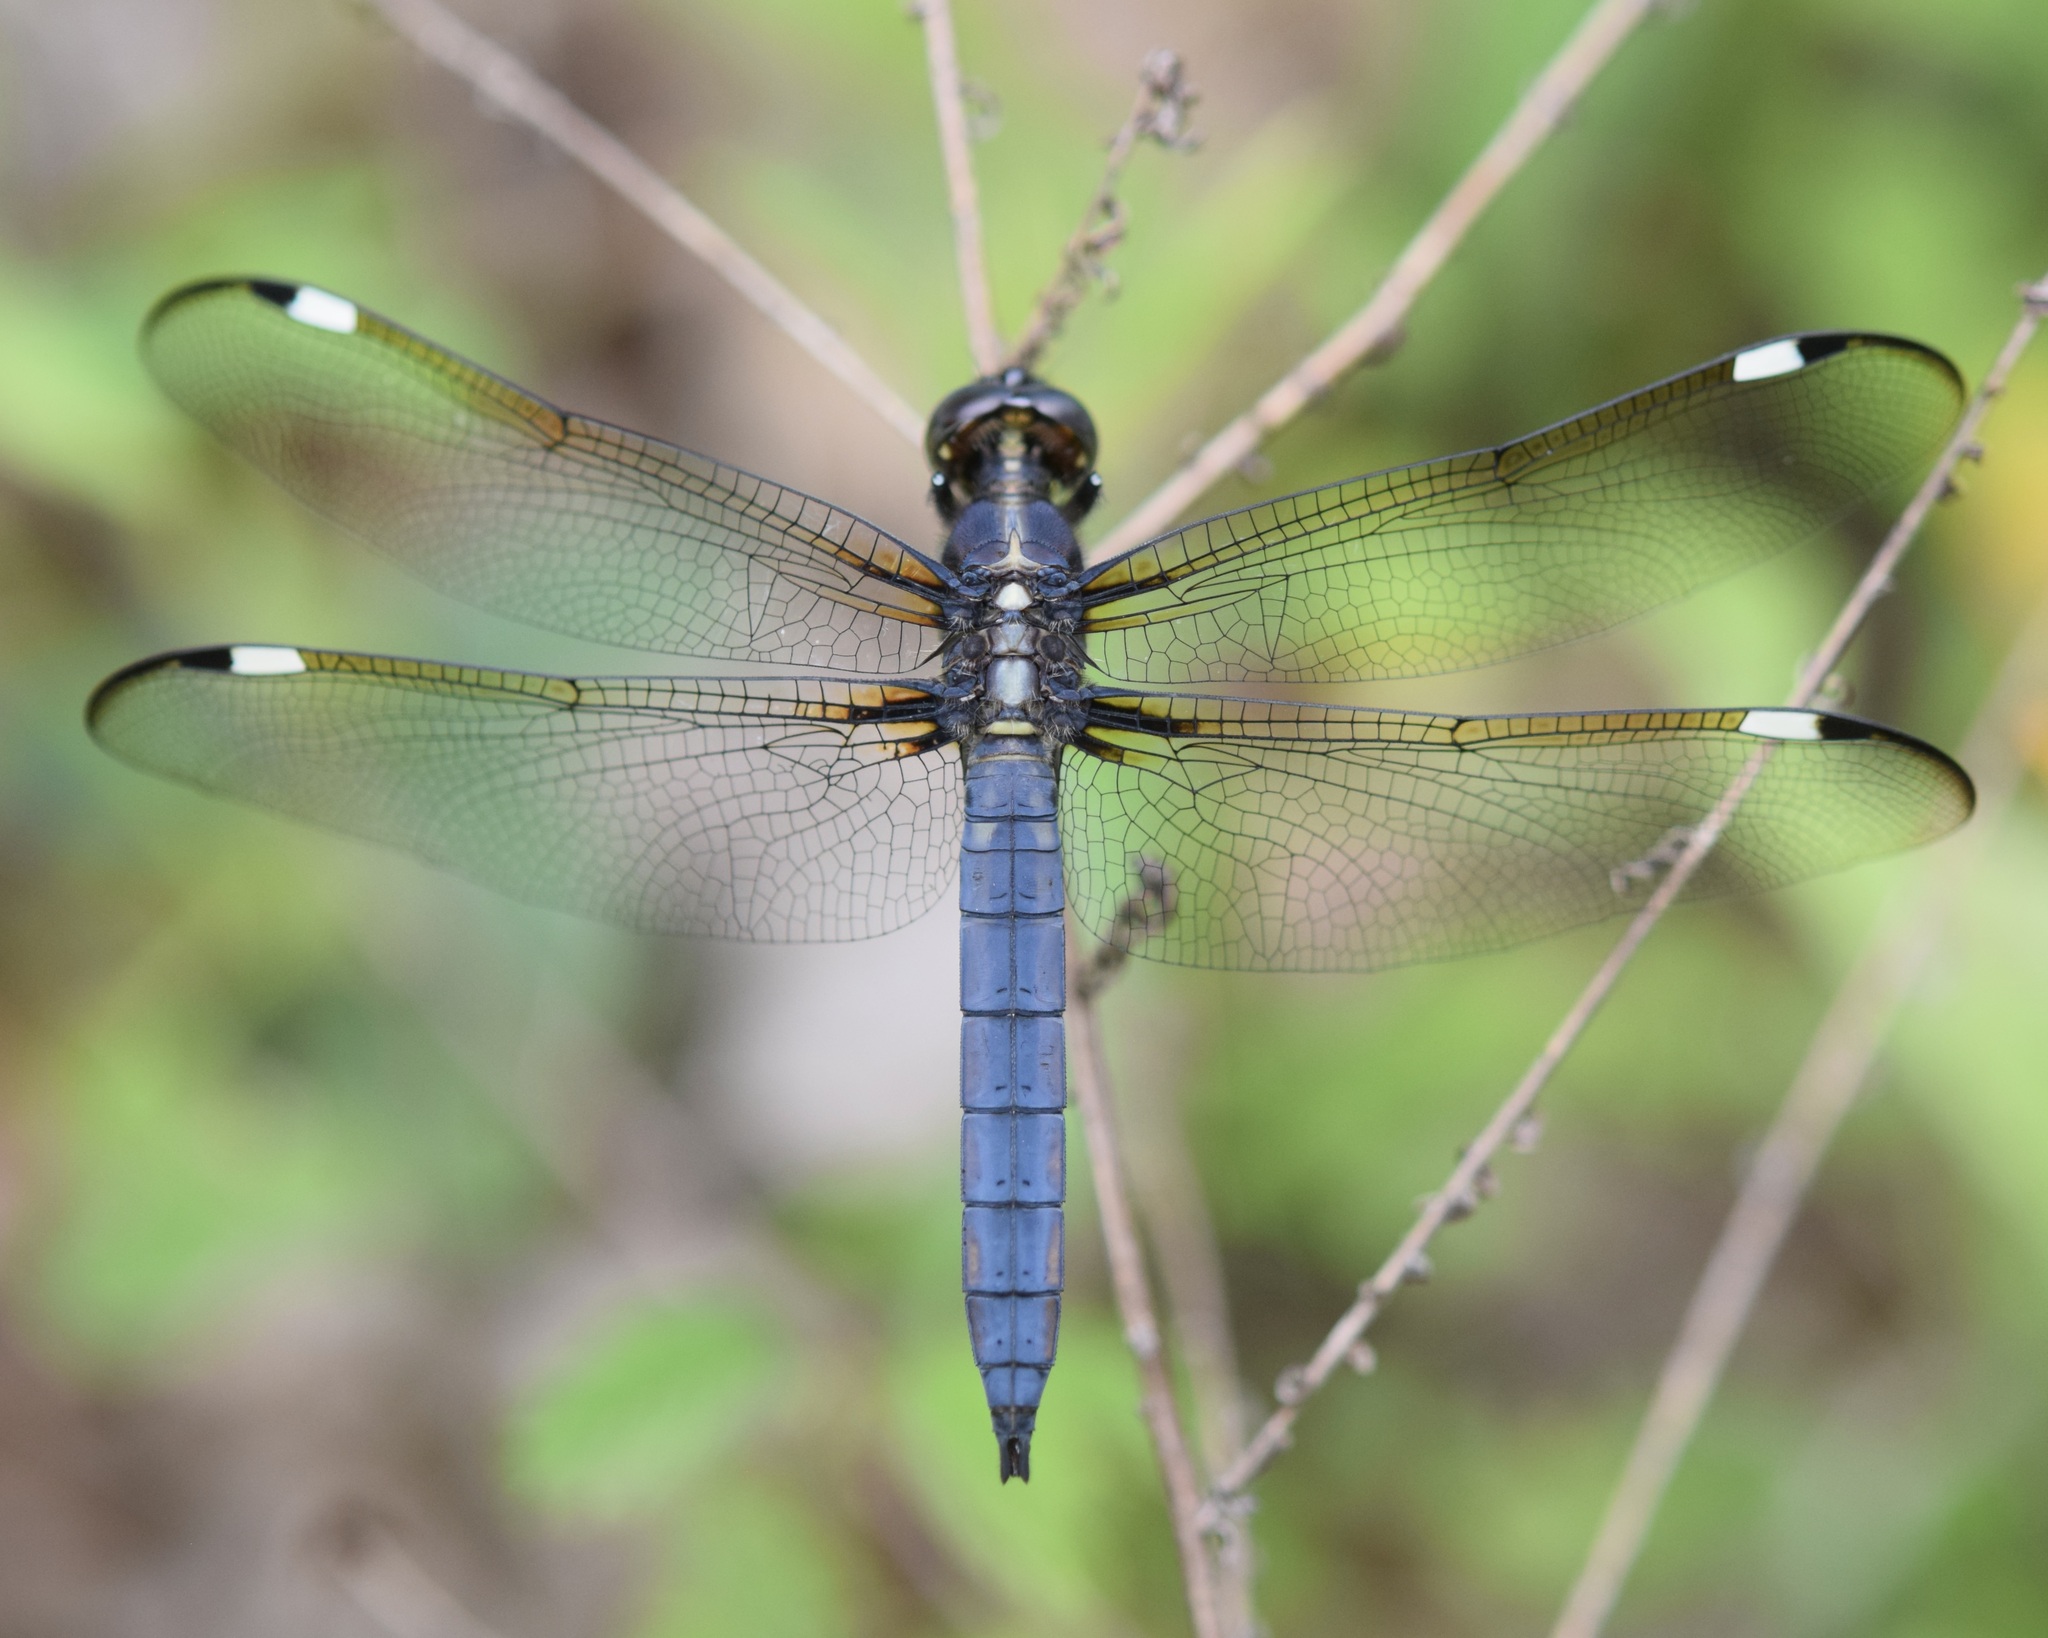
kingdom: Animalia
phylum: Arthropoda
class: Insecta
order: Odonata
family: Libellulidae
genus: Libellula
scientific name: Libellula cyanea
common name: Spangled skimmer
